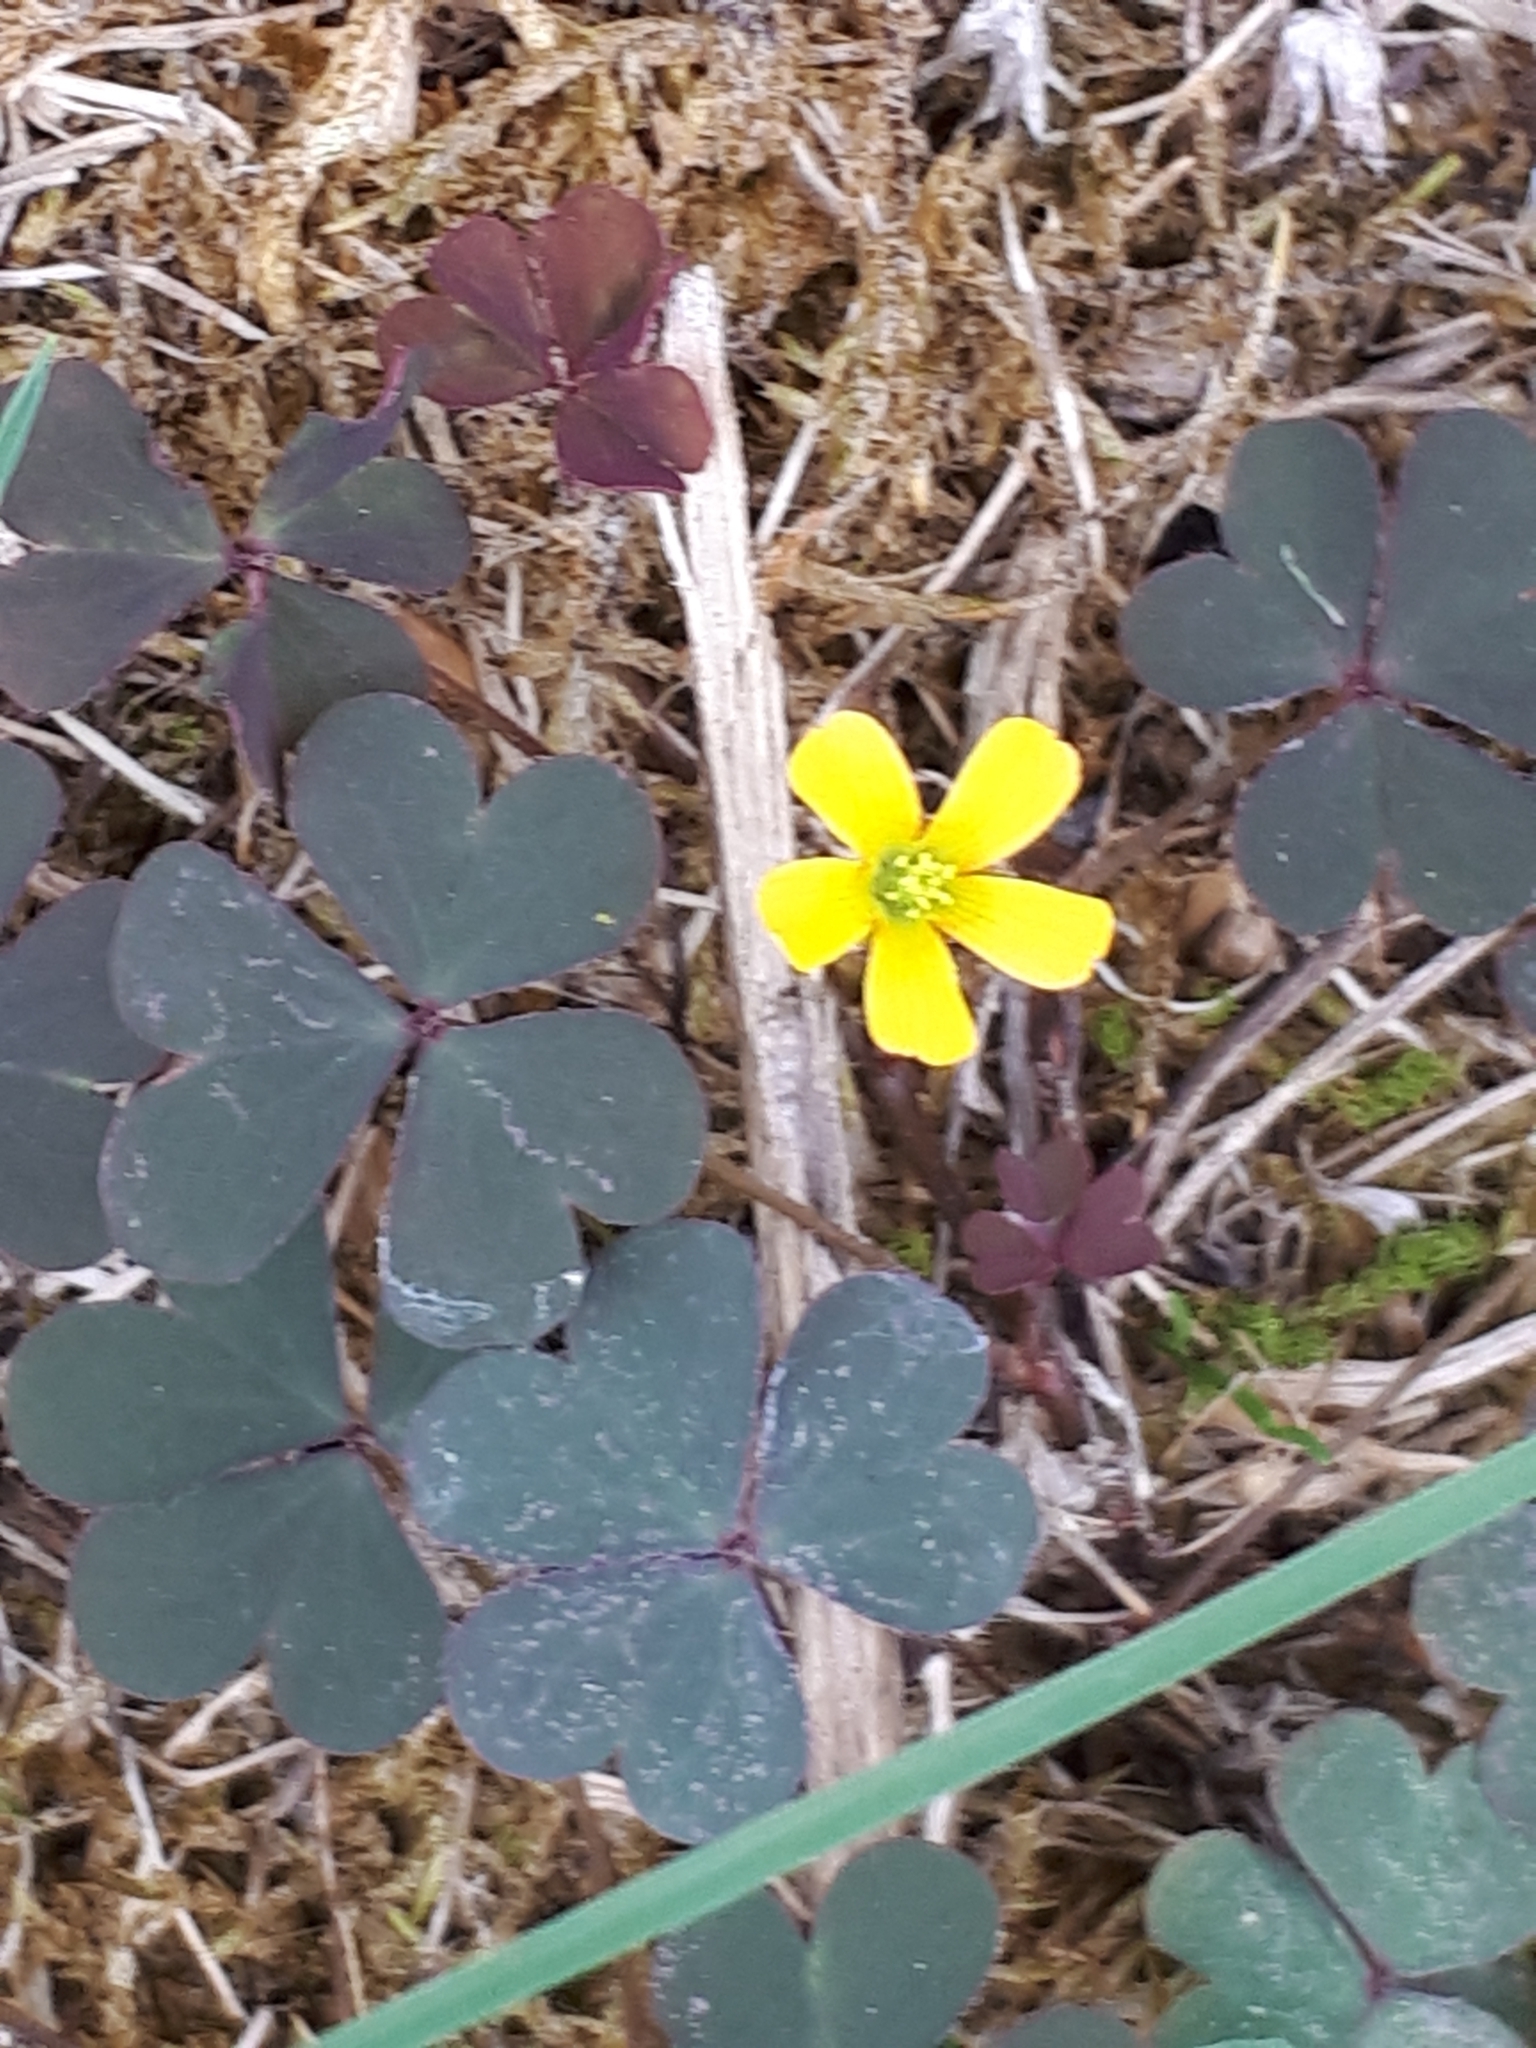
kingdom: Plantae
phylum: Tracheophyta
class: Magnoliopsida
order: Oxalidales
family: Oxalidaceae
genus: Oxalis
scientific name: Oxalis corniculata
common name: Procumbent yellow-sorrel
